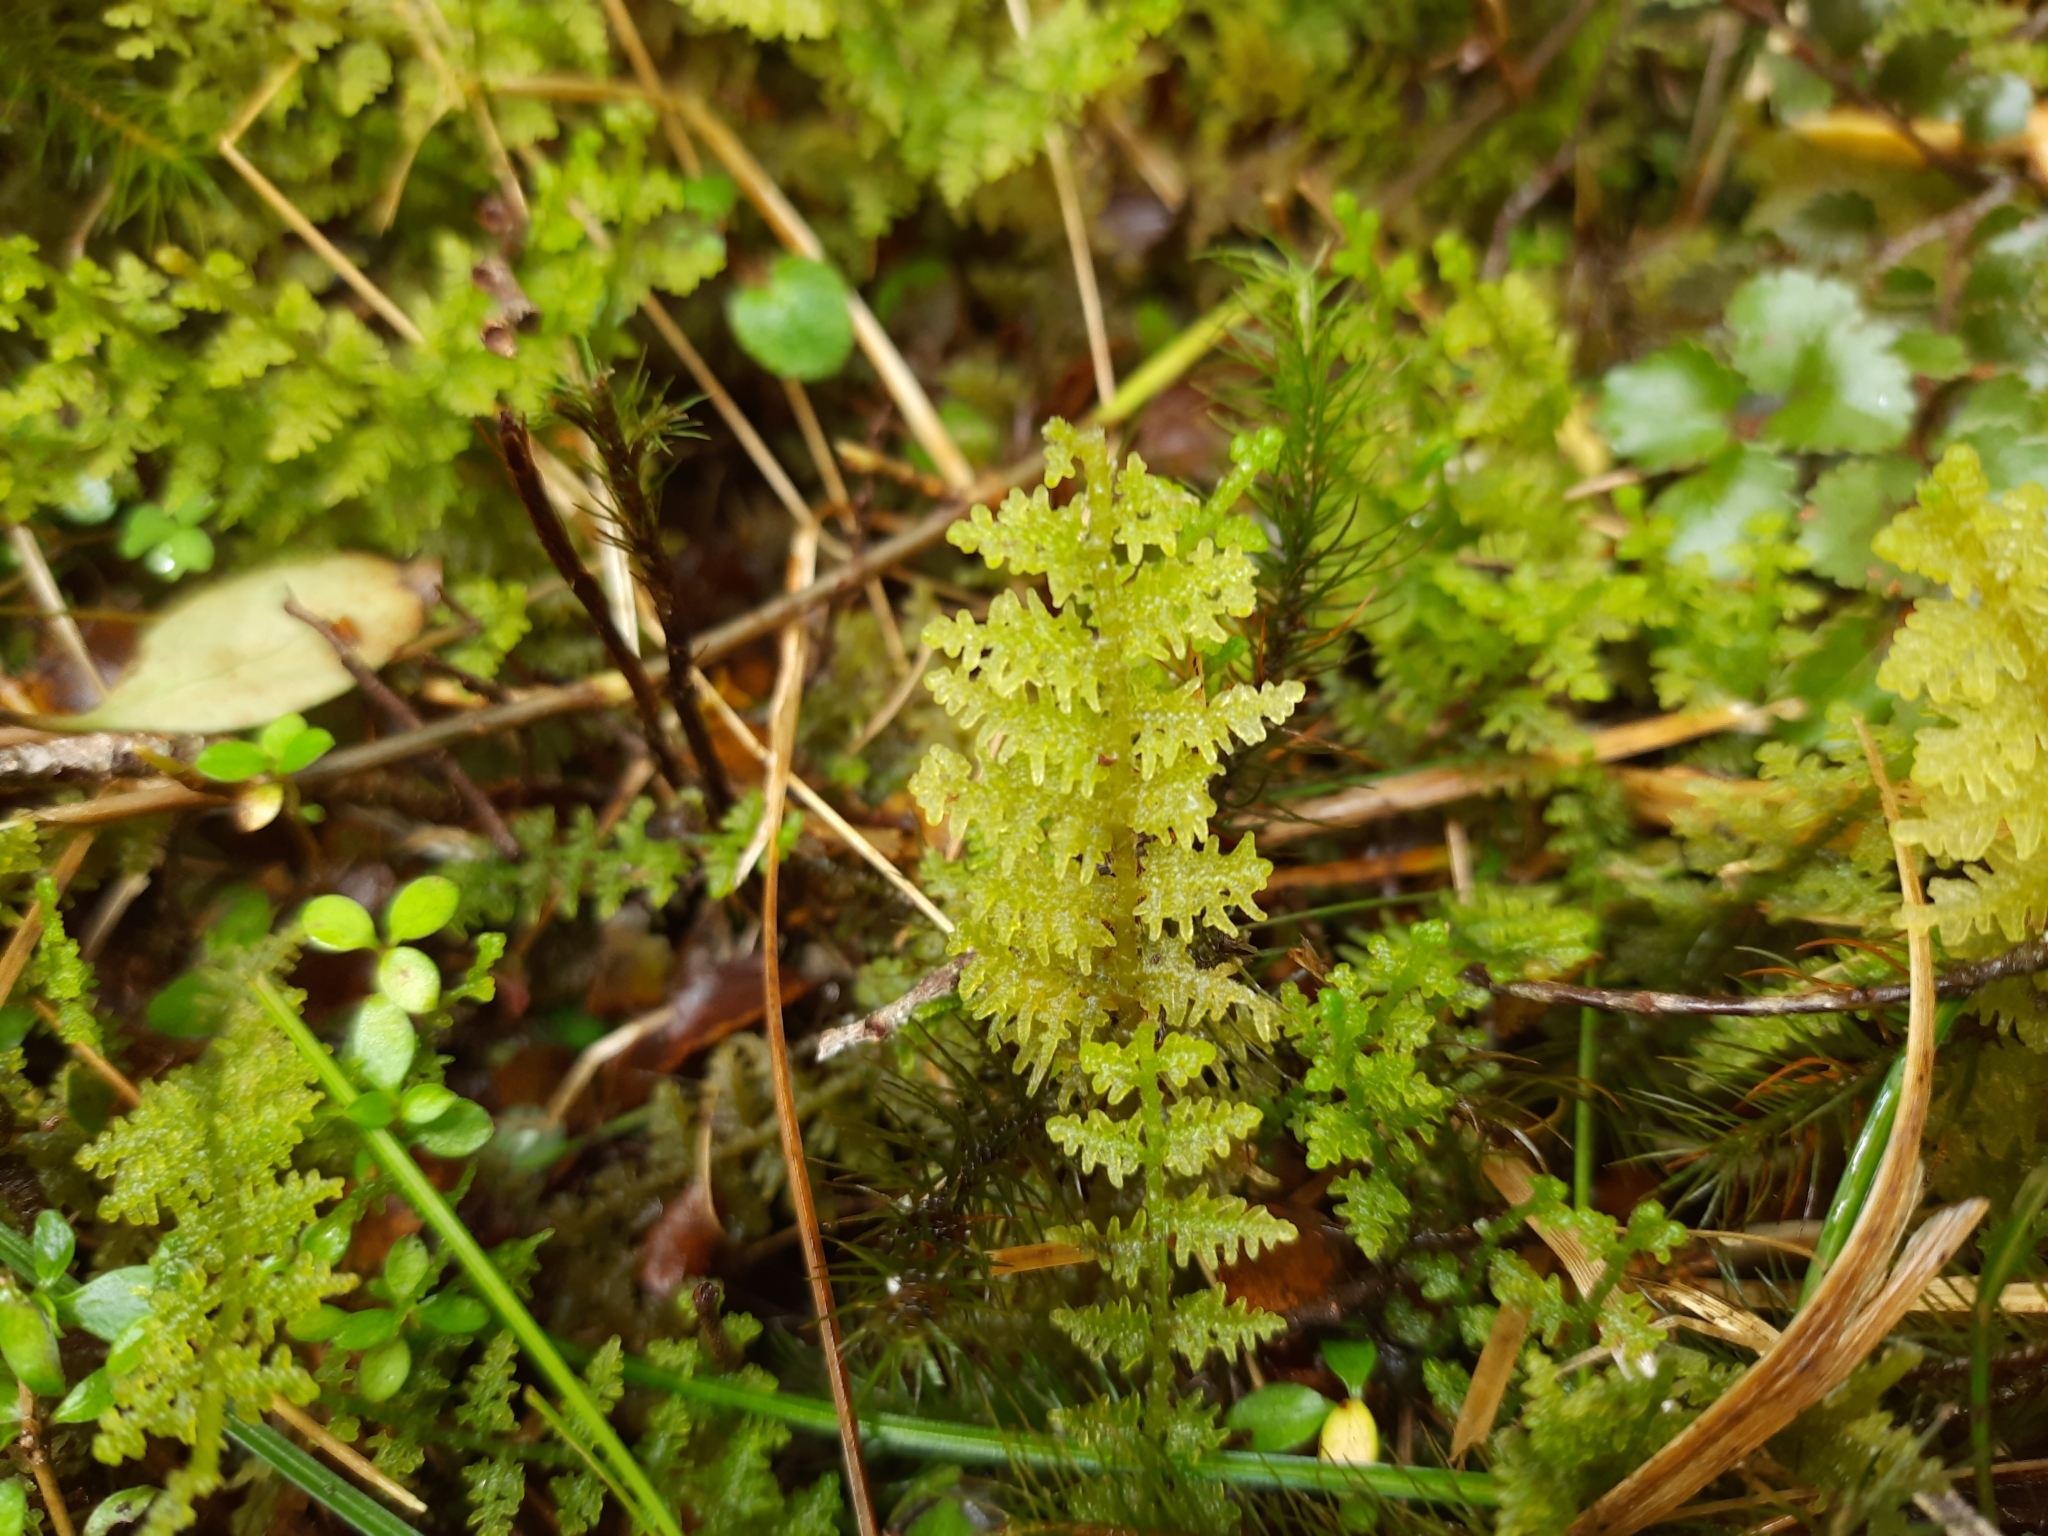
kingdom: Plantae
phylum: Marchantiophyta
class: Jungermanniopsida
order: Jungermanniales
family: Trichocoleaceae
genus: Trichocolea
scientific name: Trichocolea mollissima
